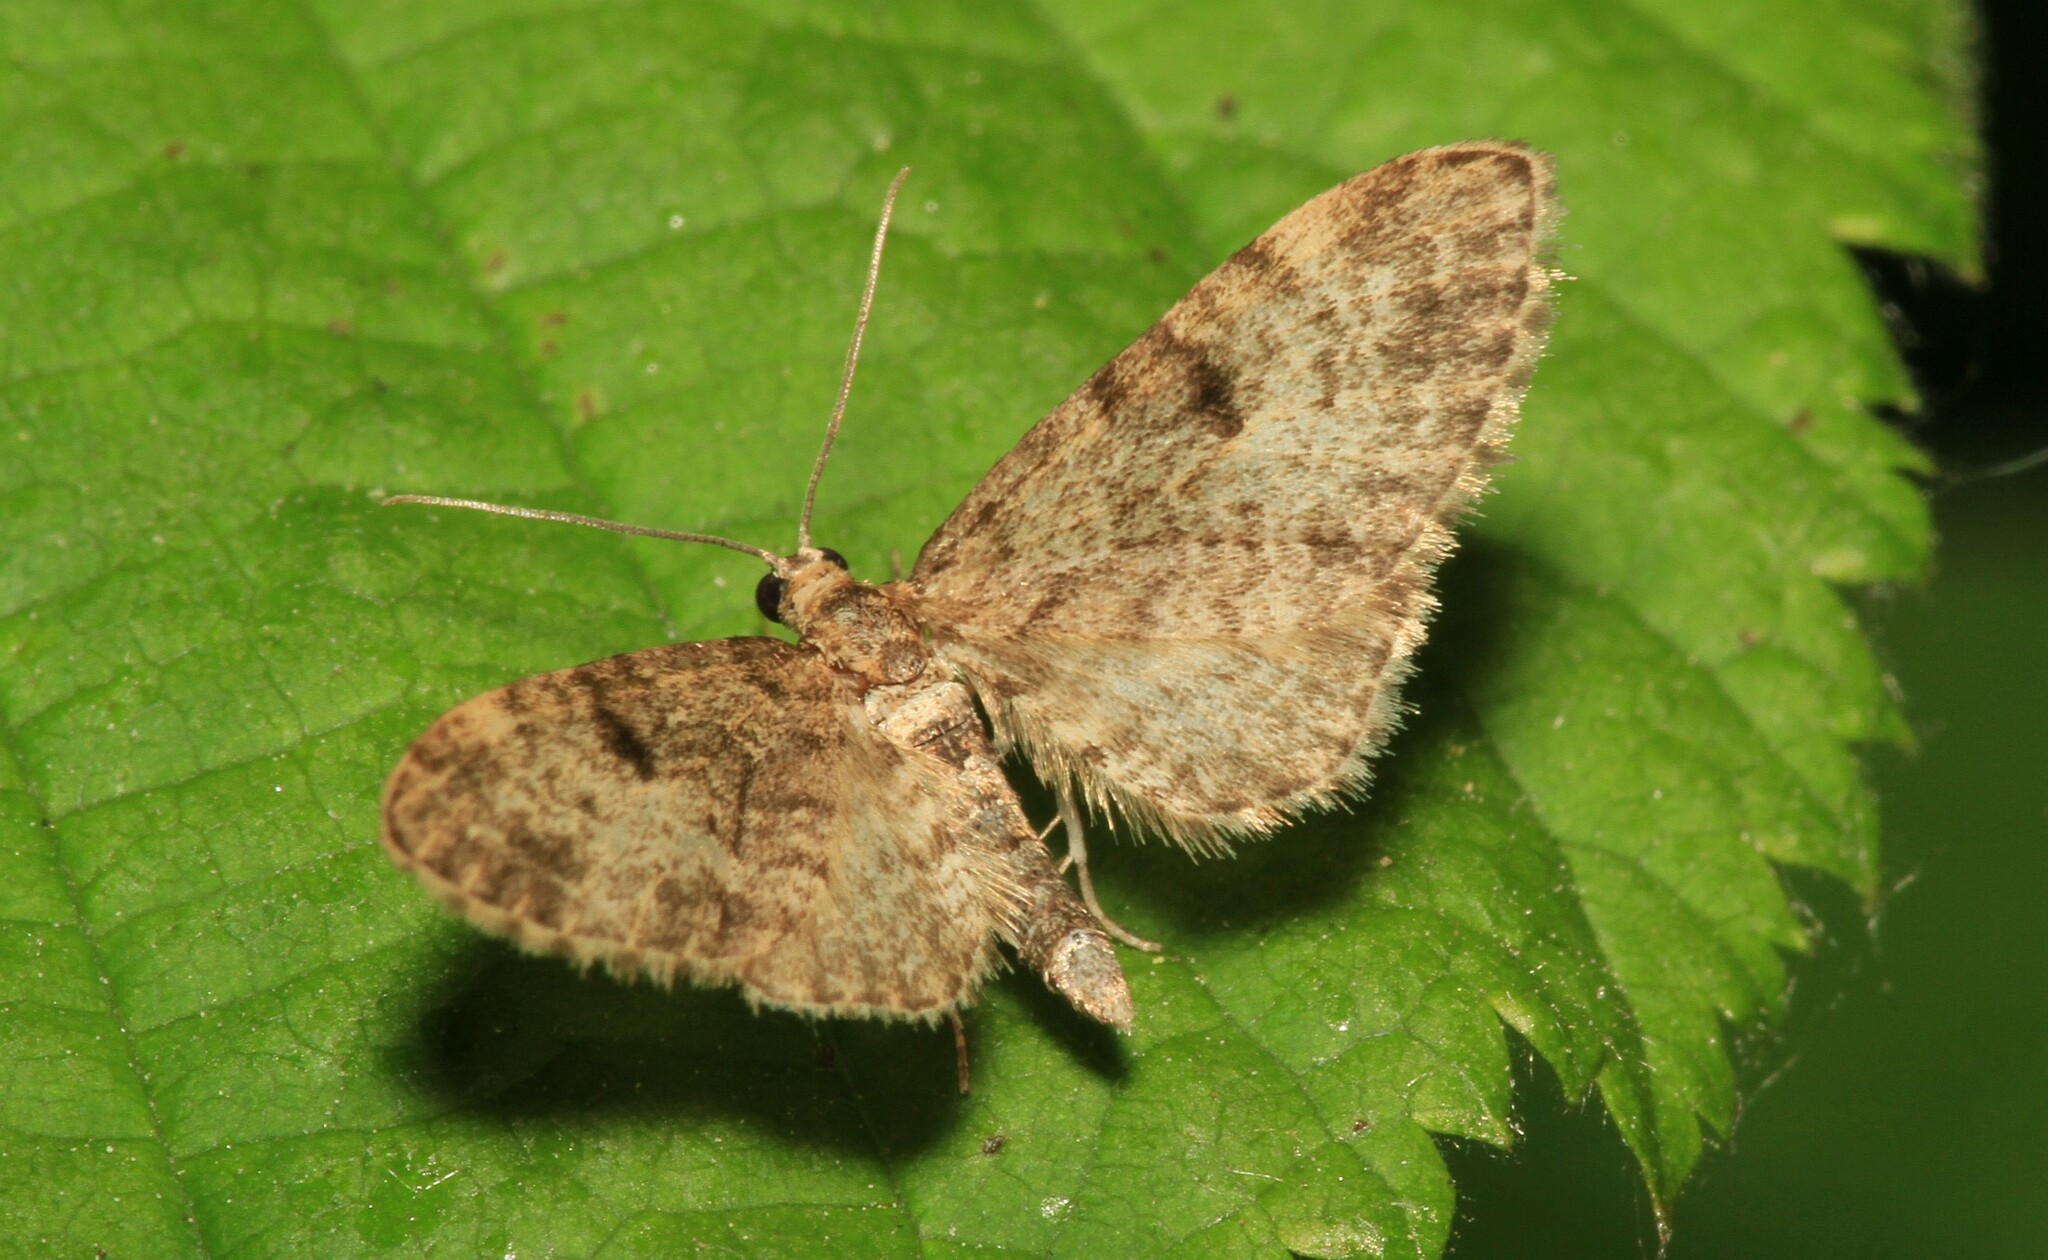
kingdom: Animalia
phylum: Arthropoda
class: Insecta
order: Lepidoptera
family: Geometridae
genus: Eupithecia
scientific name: Eupithecia tantillaria
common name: Dwarf pug
